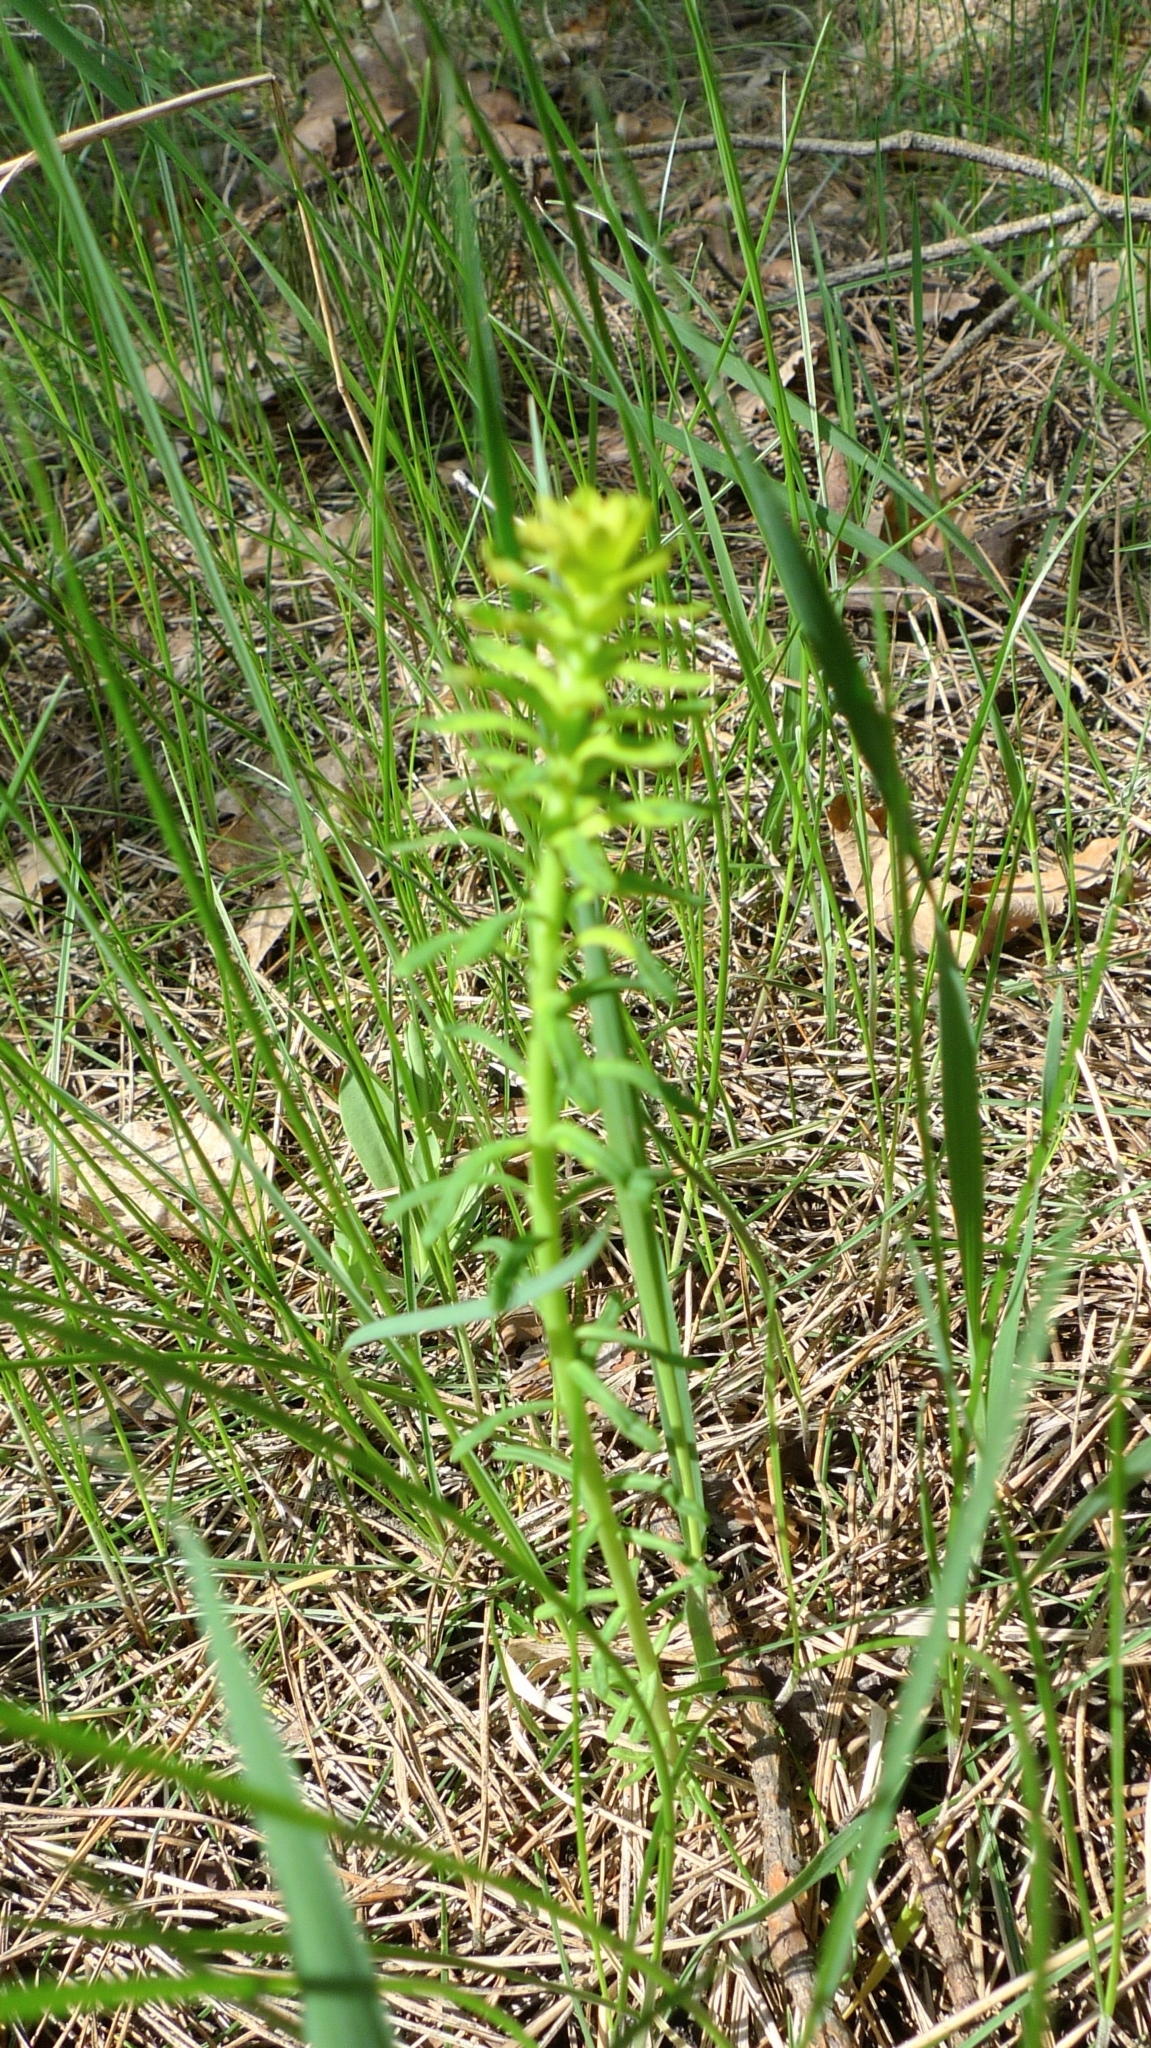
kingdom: Plantae
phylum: Tracheophyta
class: Magnoliopsida
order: Malpighiales
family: Euphorbiaceae
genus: Euphorbia
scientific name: Euphorbia cyparissias
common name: Cypress spurge
